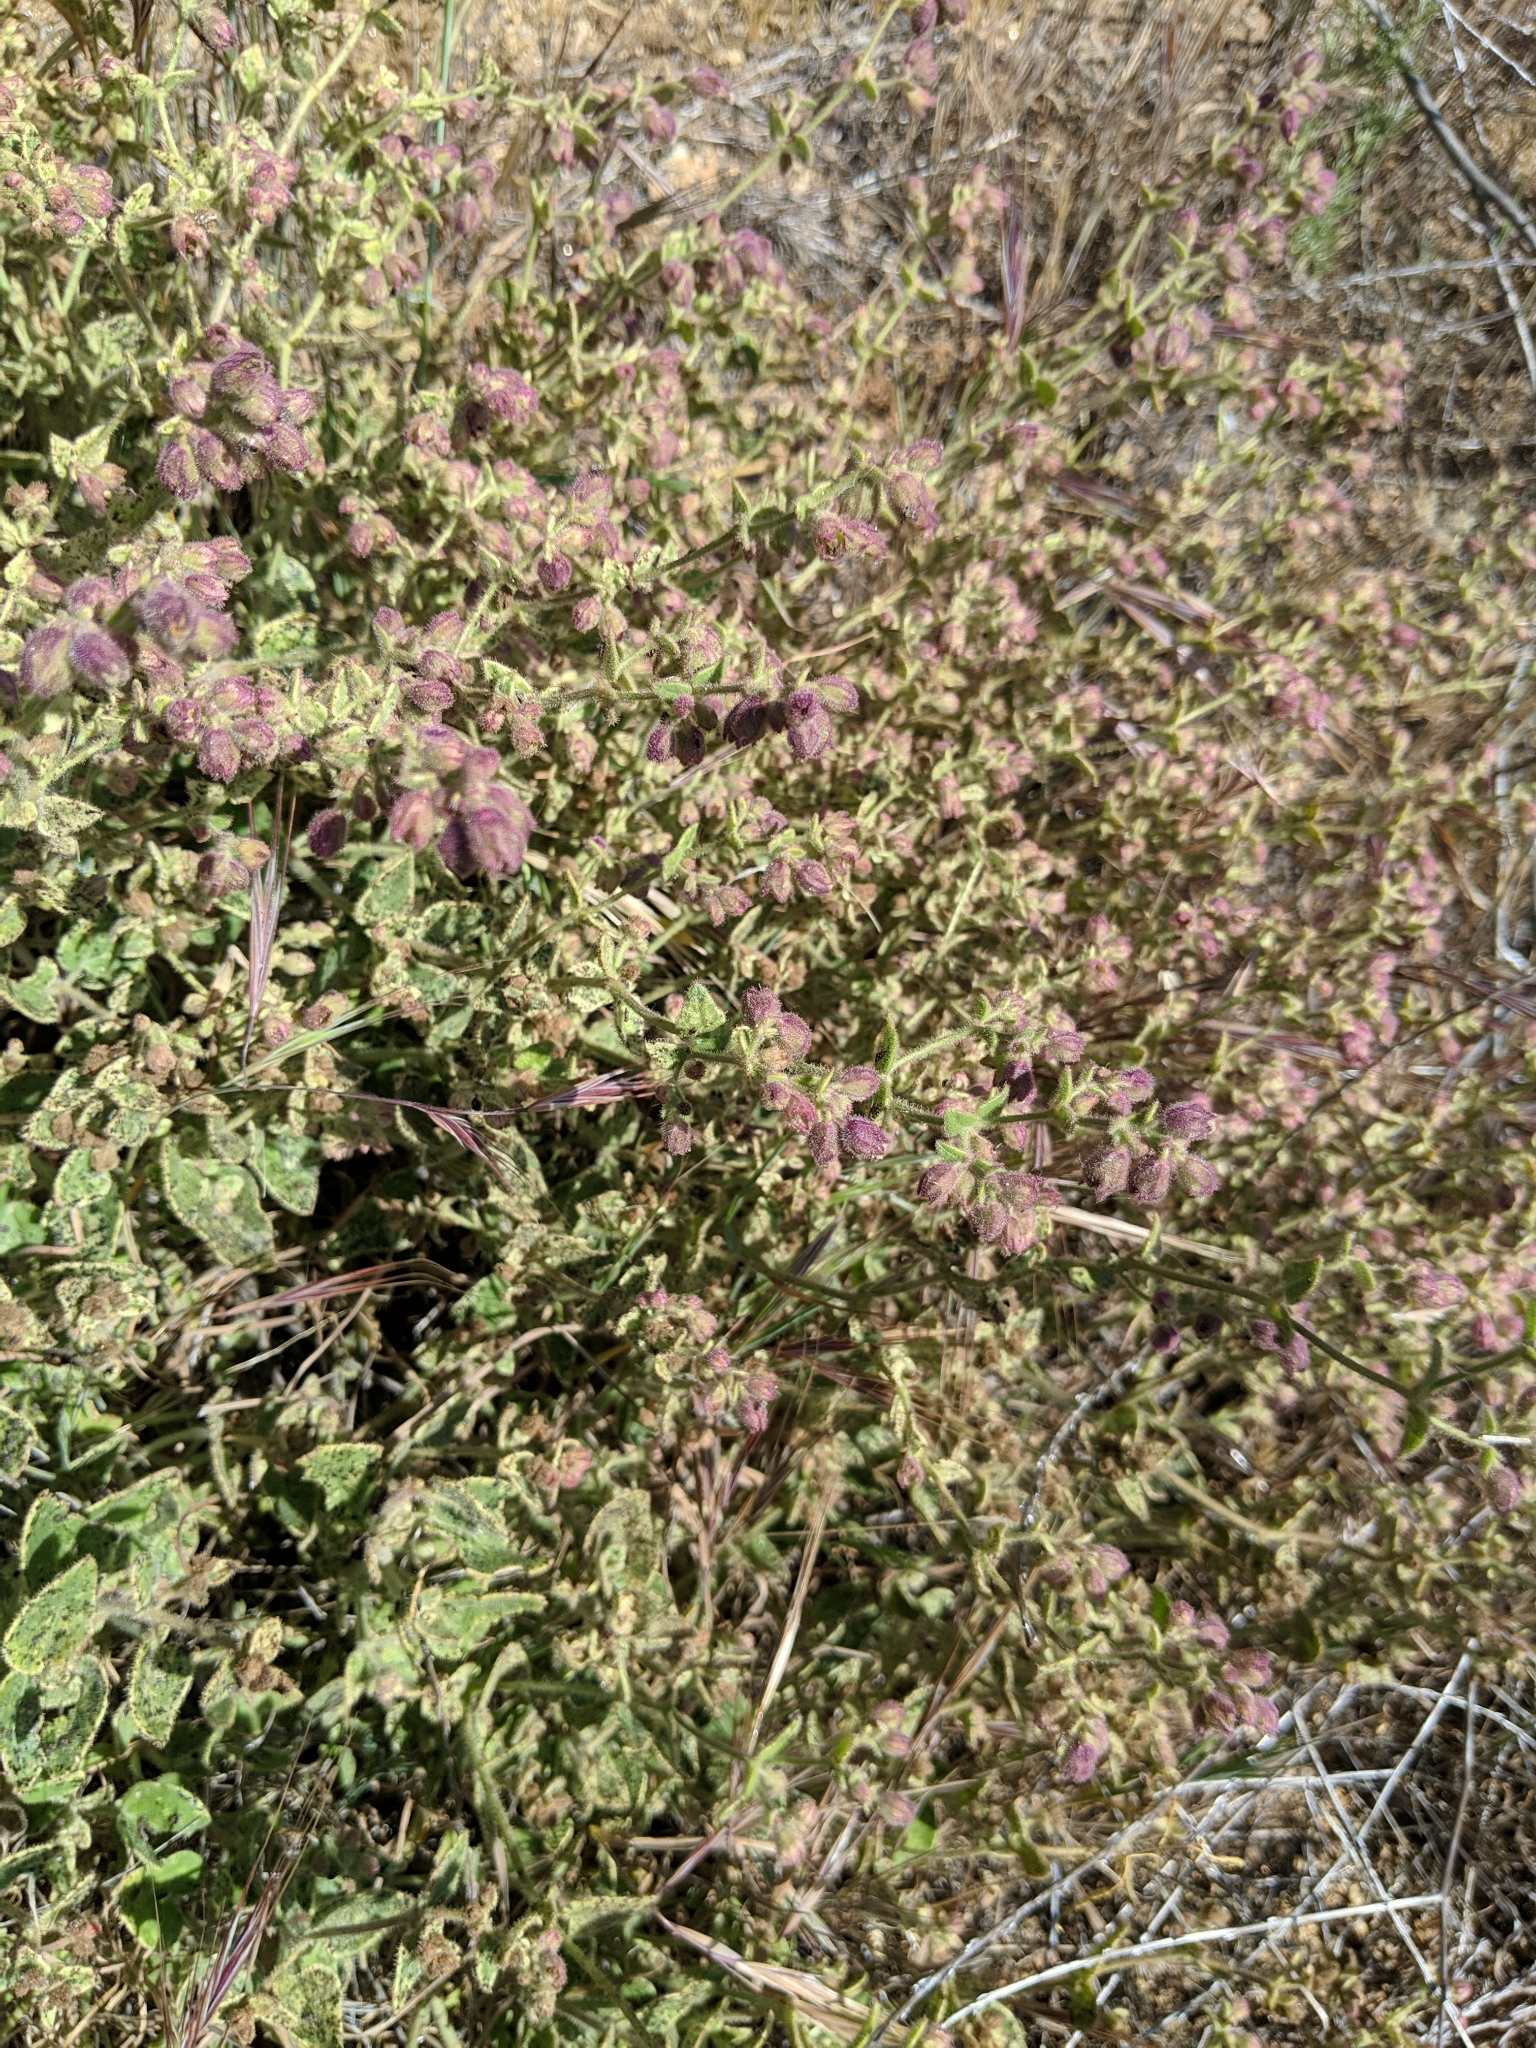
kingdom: Plantae
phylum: Tracheophyta
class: Magnoliopsida
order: Caryophyllales
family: Nyctaginaceae
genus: Mirabilis
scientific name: Mirabilis laevis
